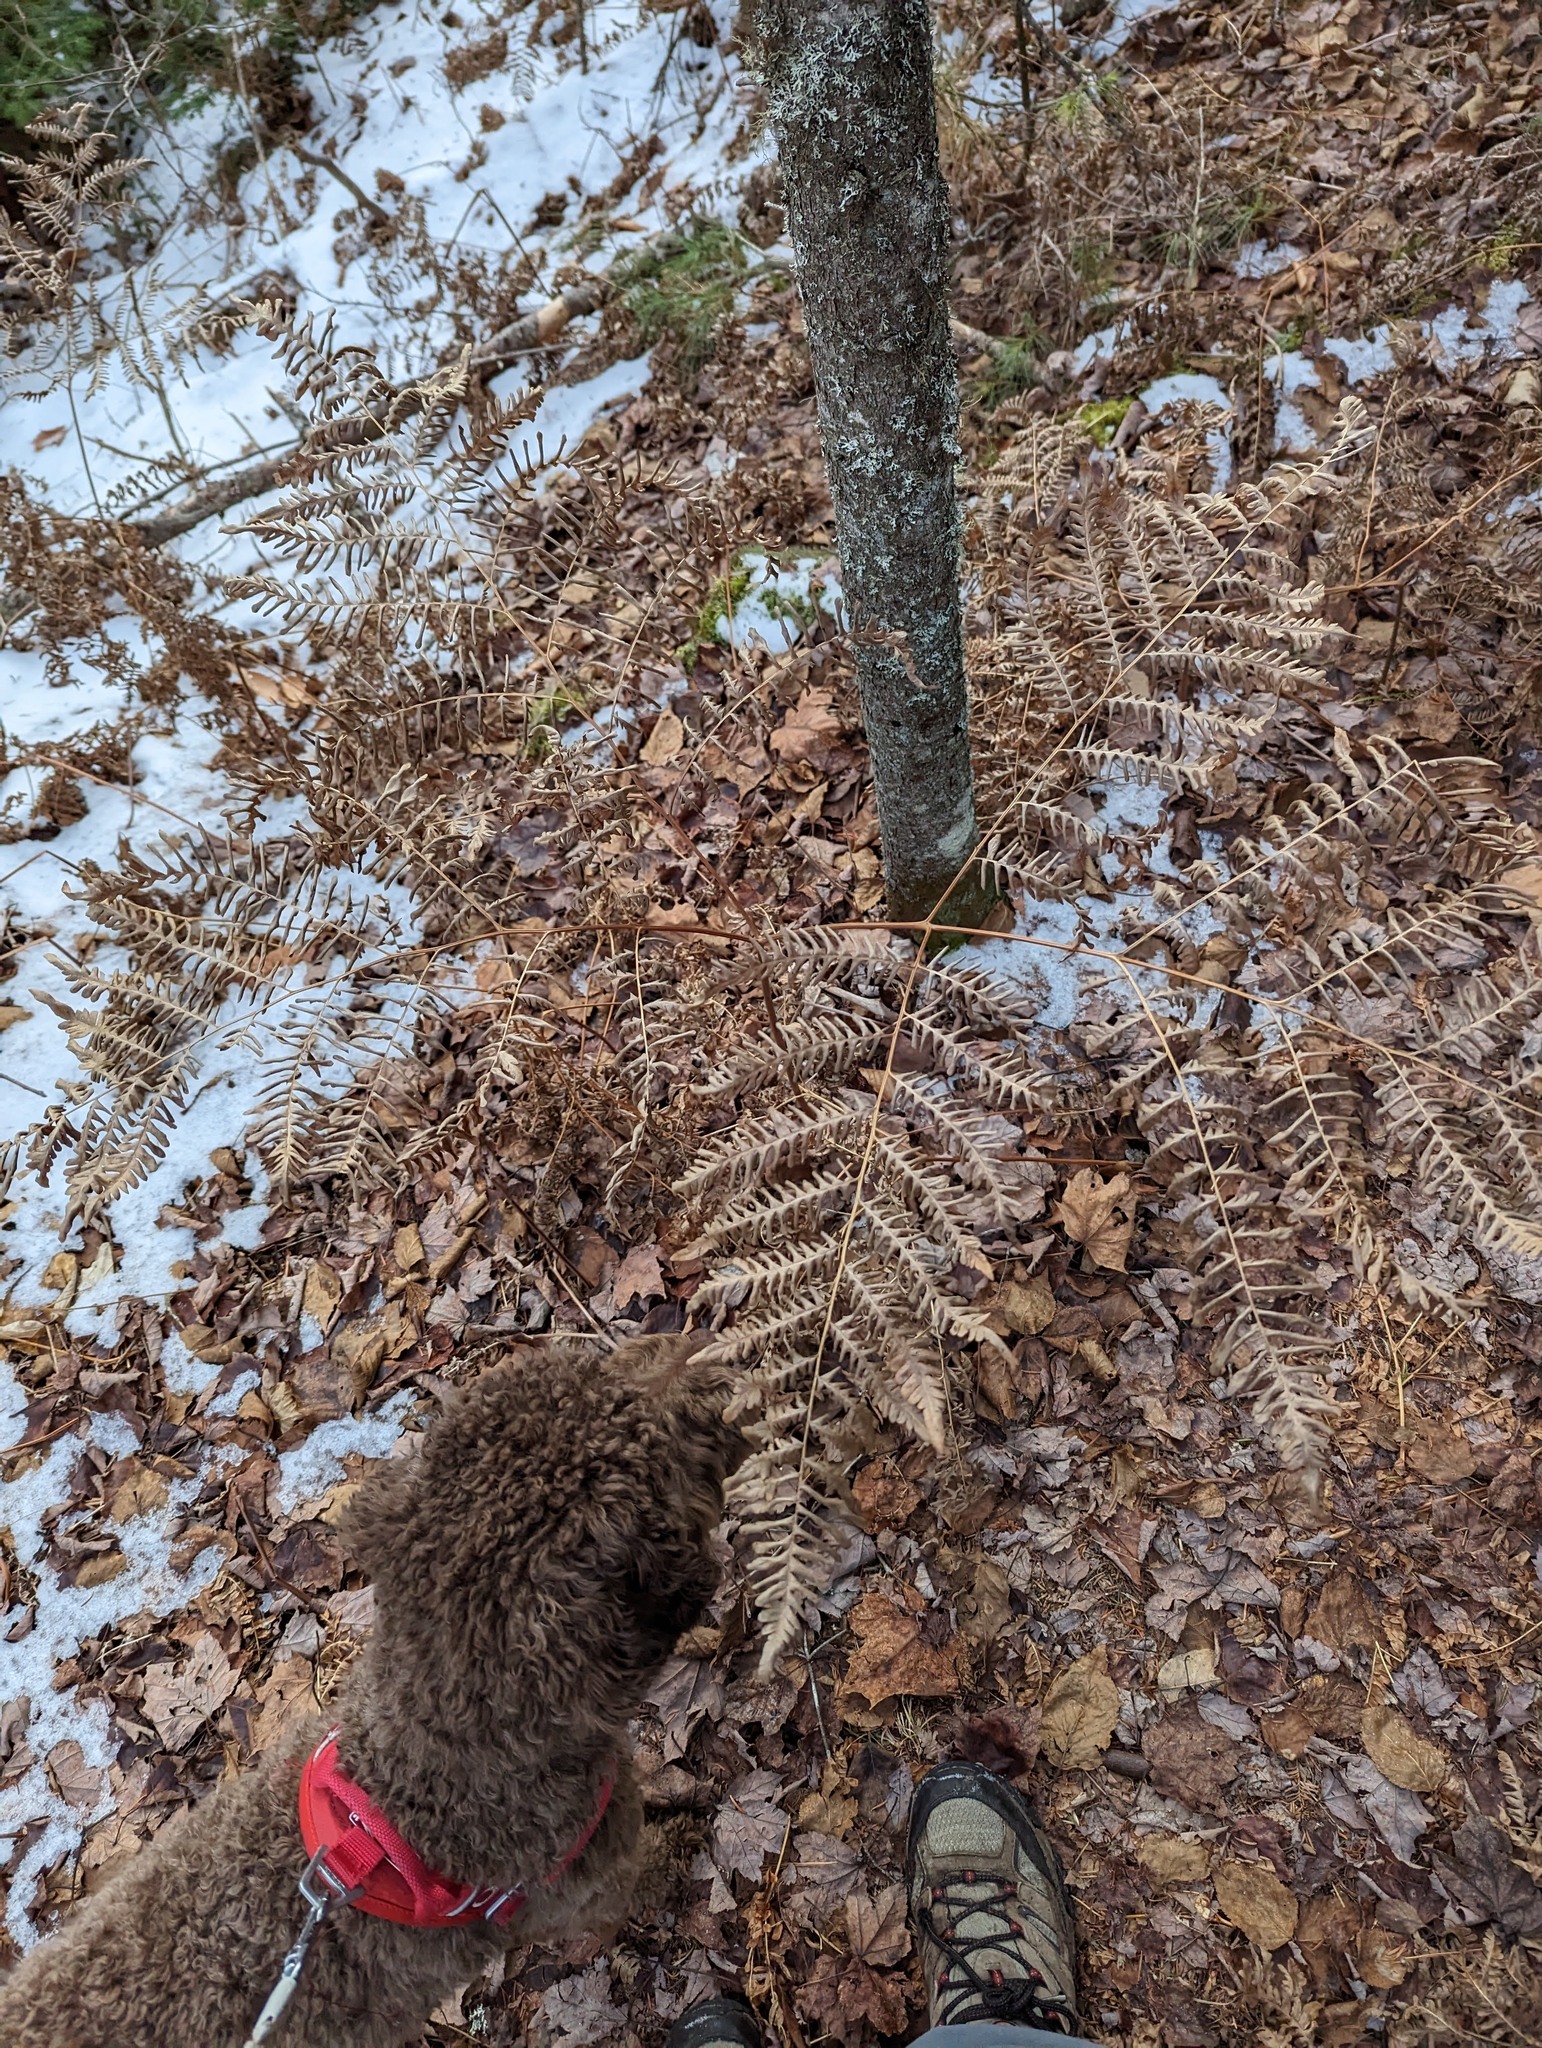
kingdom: Plantae
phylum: Tracheophyta
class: Polypodiopsida
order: Polypodiales
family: Dennstaedtiaceae
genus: Pteridium
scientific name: Pteridium aquilinum
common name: Bracken
